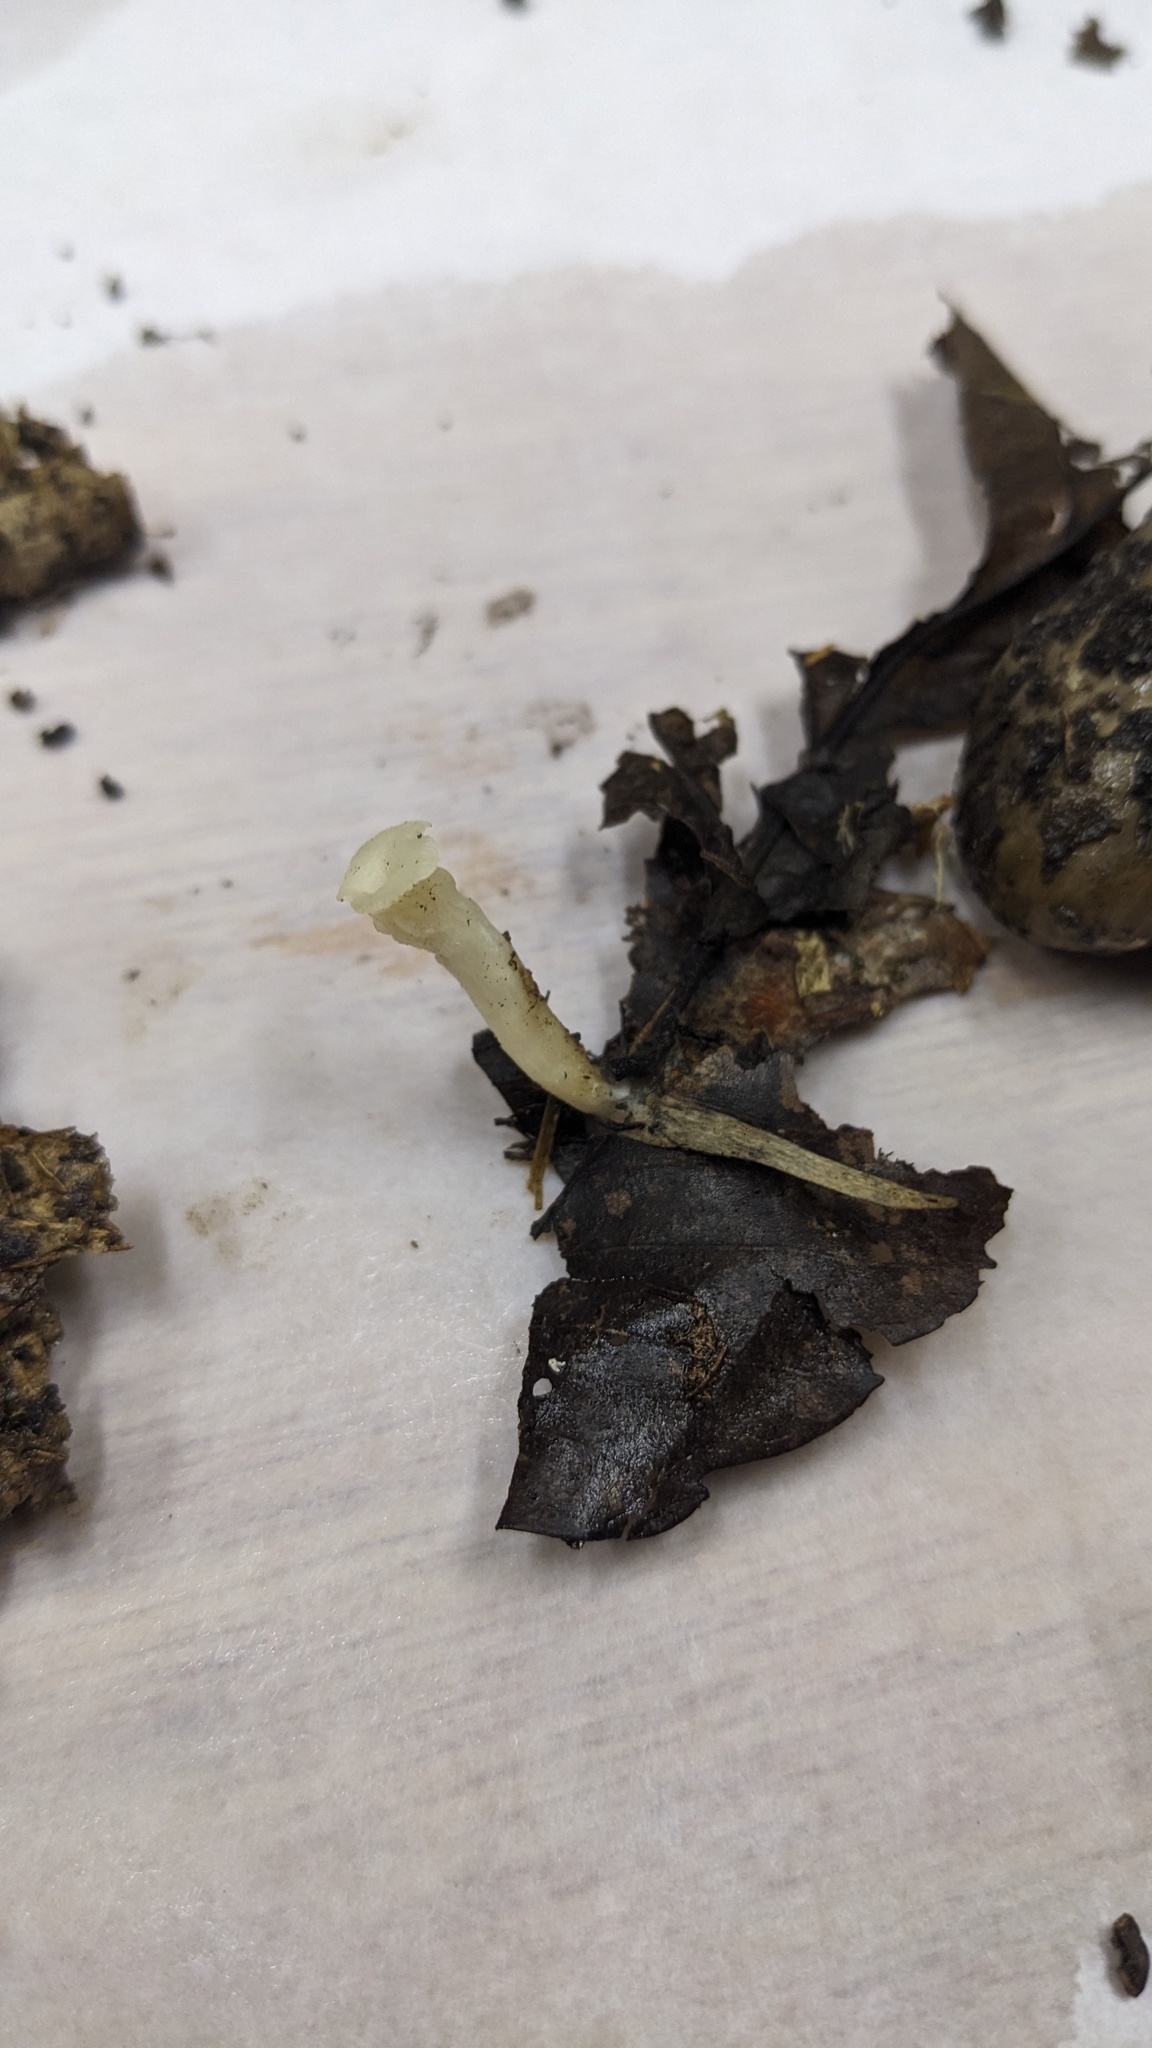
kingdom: Fungi
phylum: Basidiomycota
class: Agaricomycetes
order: Agaricales
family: Tricholomataceae
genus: Singerocybe
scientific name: Singerocybe alboinfundibuliformis
